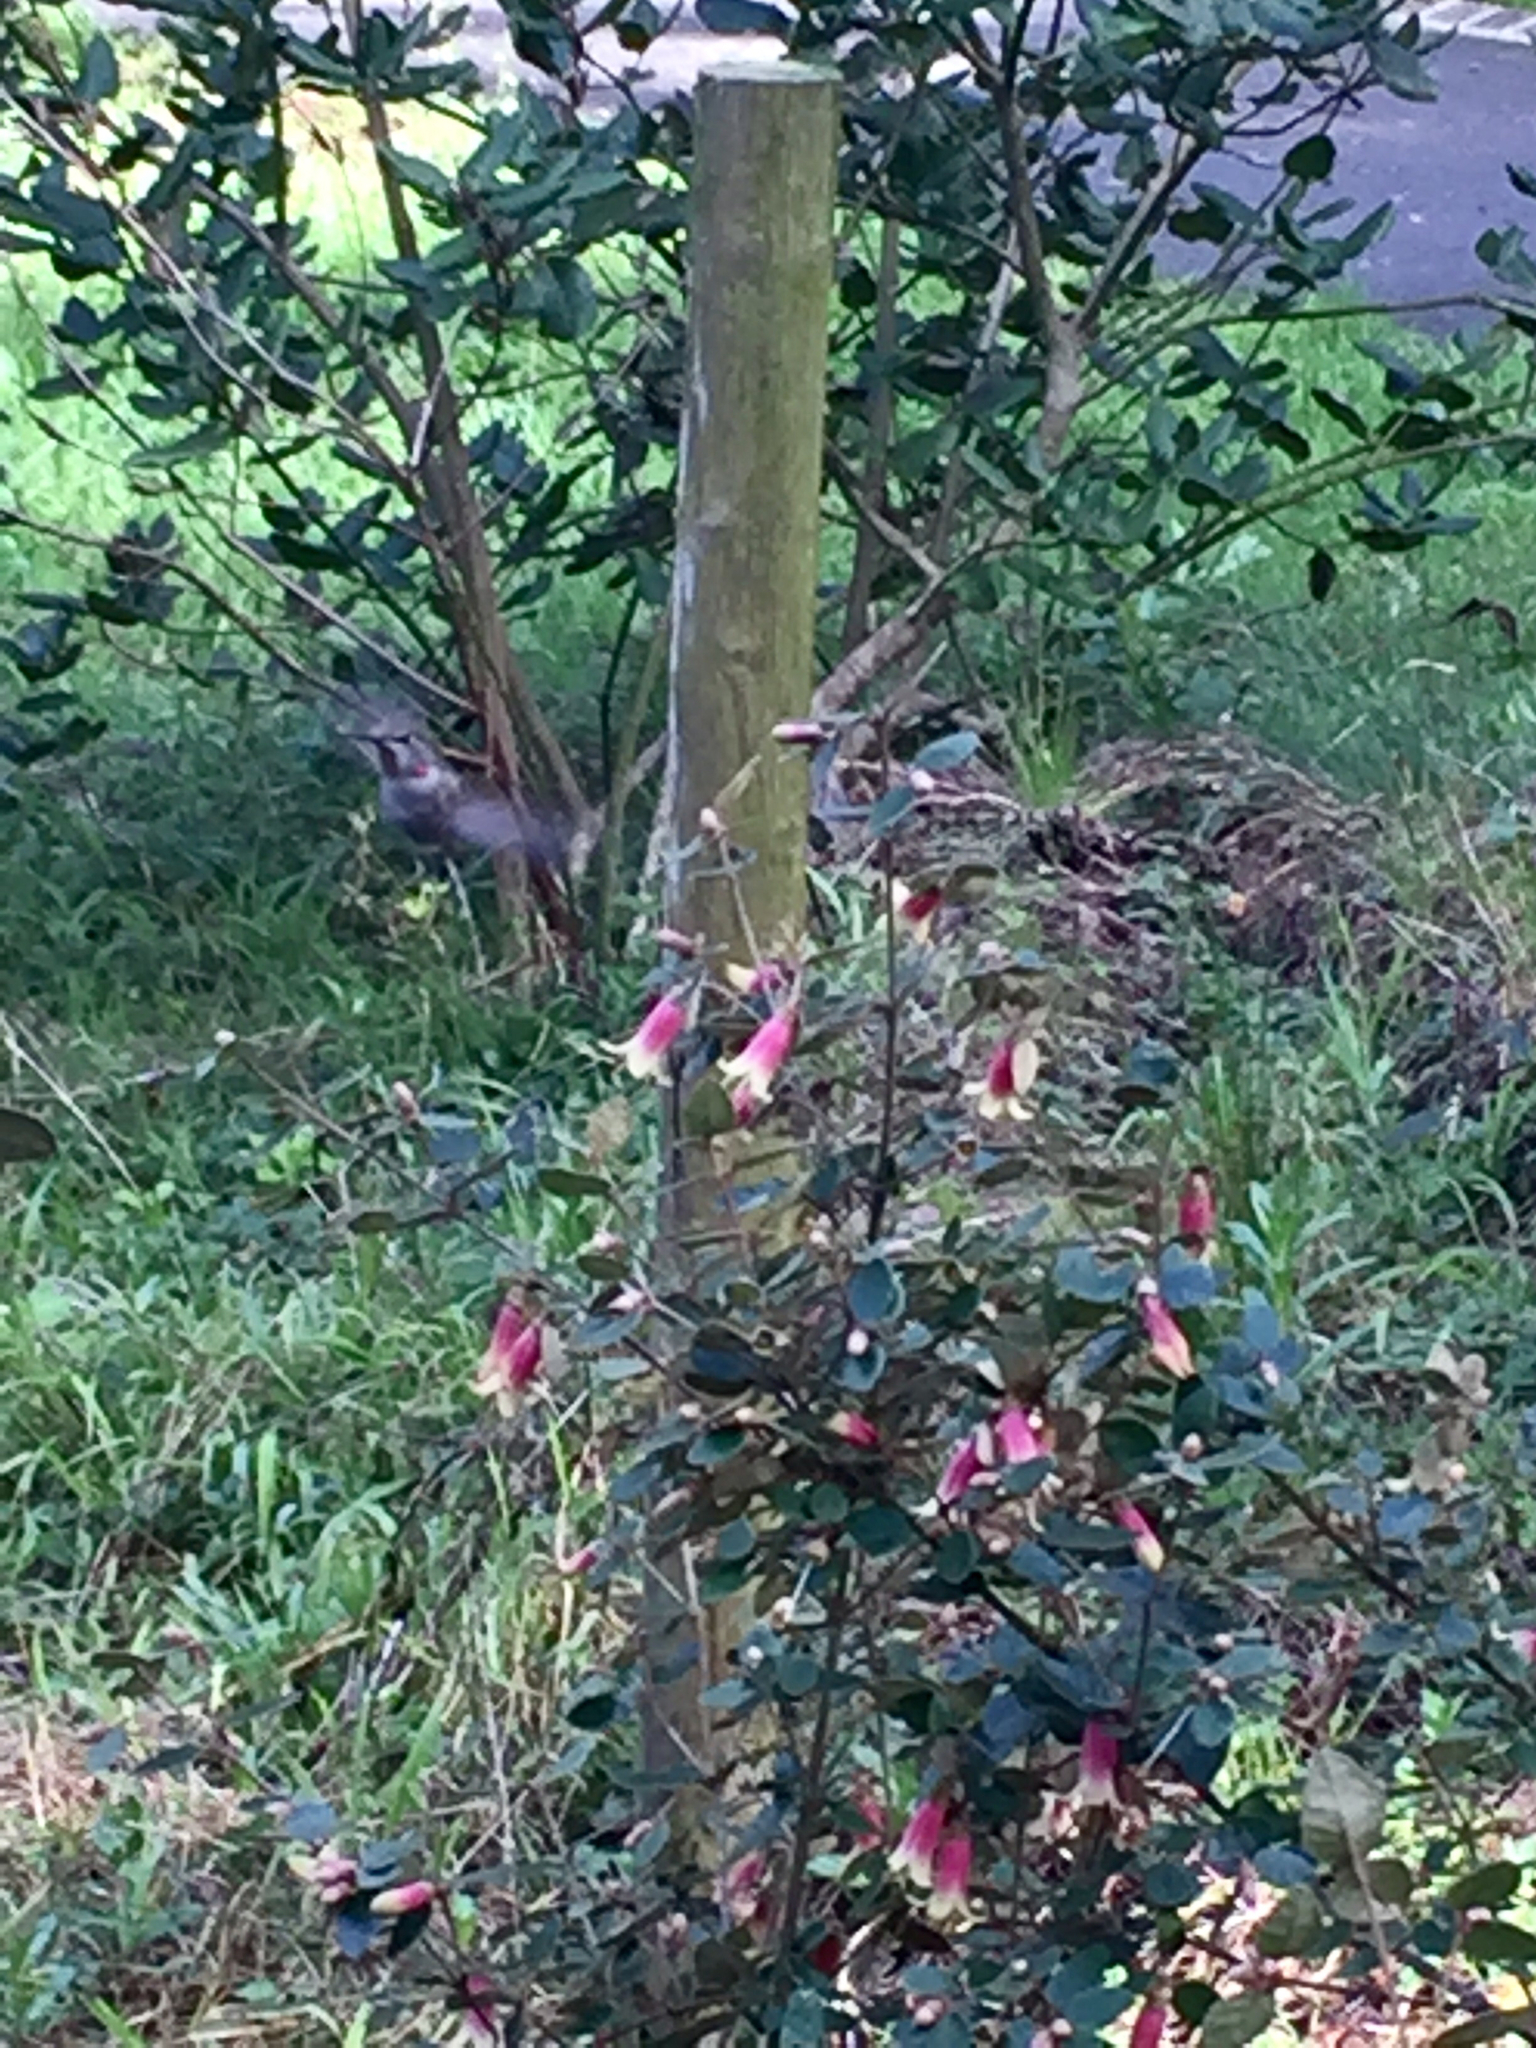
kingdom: Animalia
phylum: Chordata
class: Aves
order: Apodiformes
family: Trochilidae
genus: Calypte
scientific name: Calypte anna
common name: Anna's hummingbird
